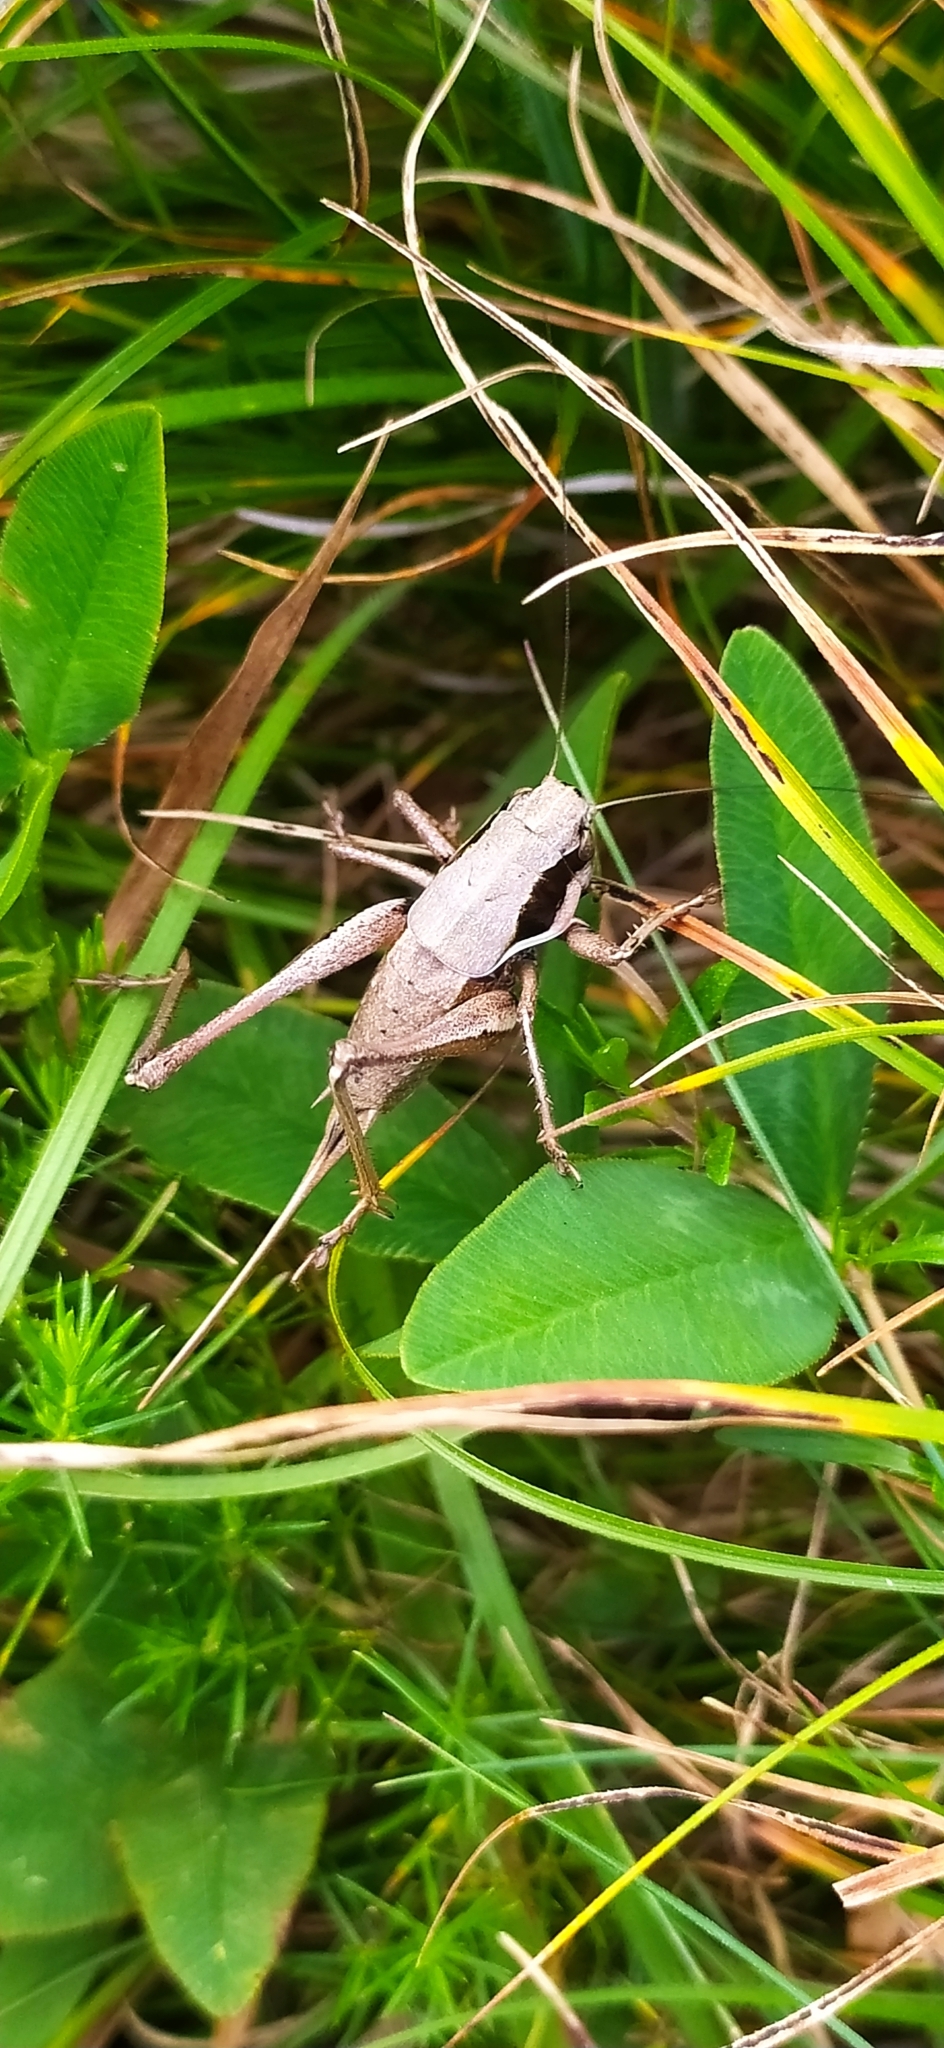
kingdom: Animalia
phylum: Arthropoda
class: Insecta
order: Orthoptera
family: Tettigoniidae
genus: Pholidoptera
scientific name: Pholidoptera pustulipes
